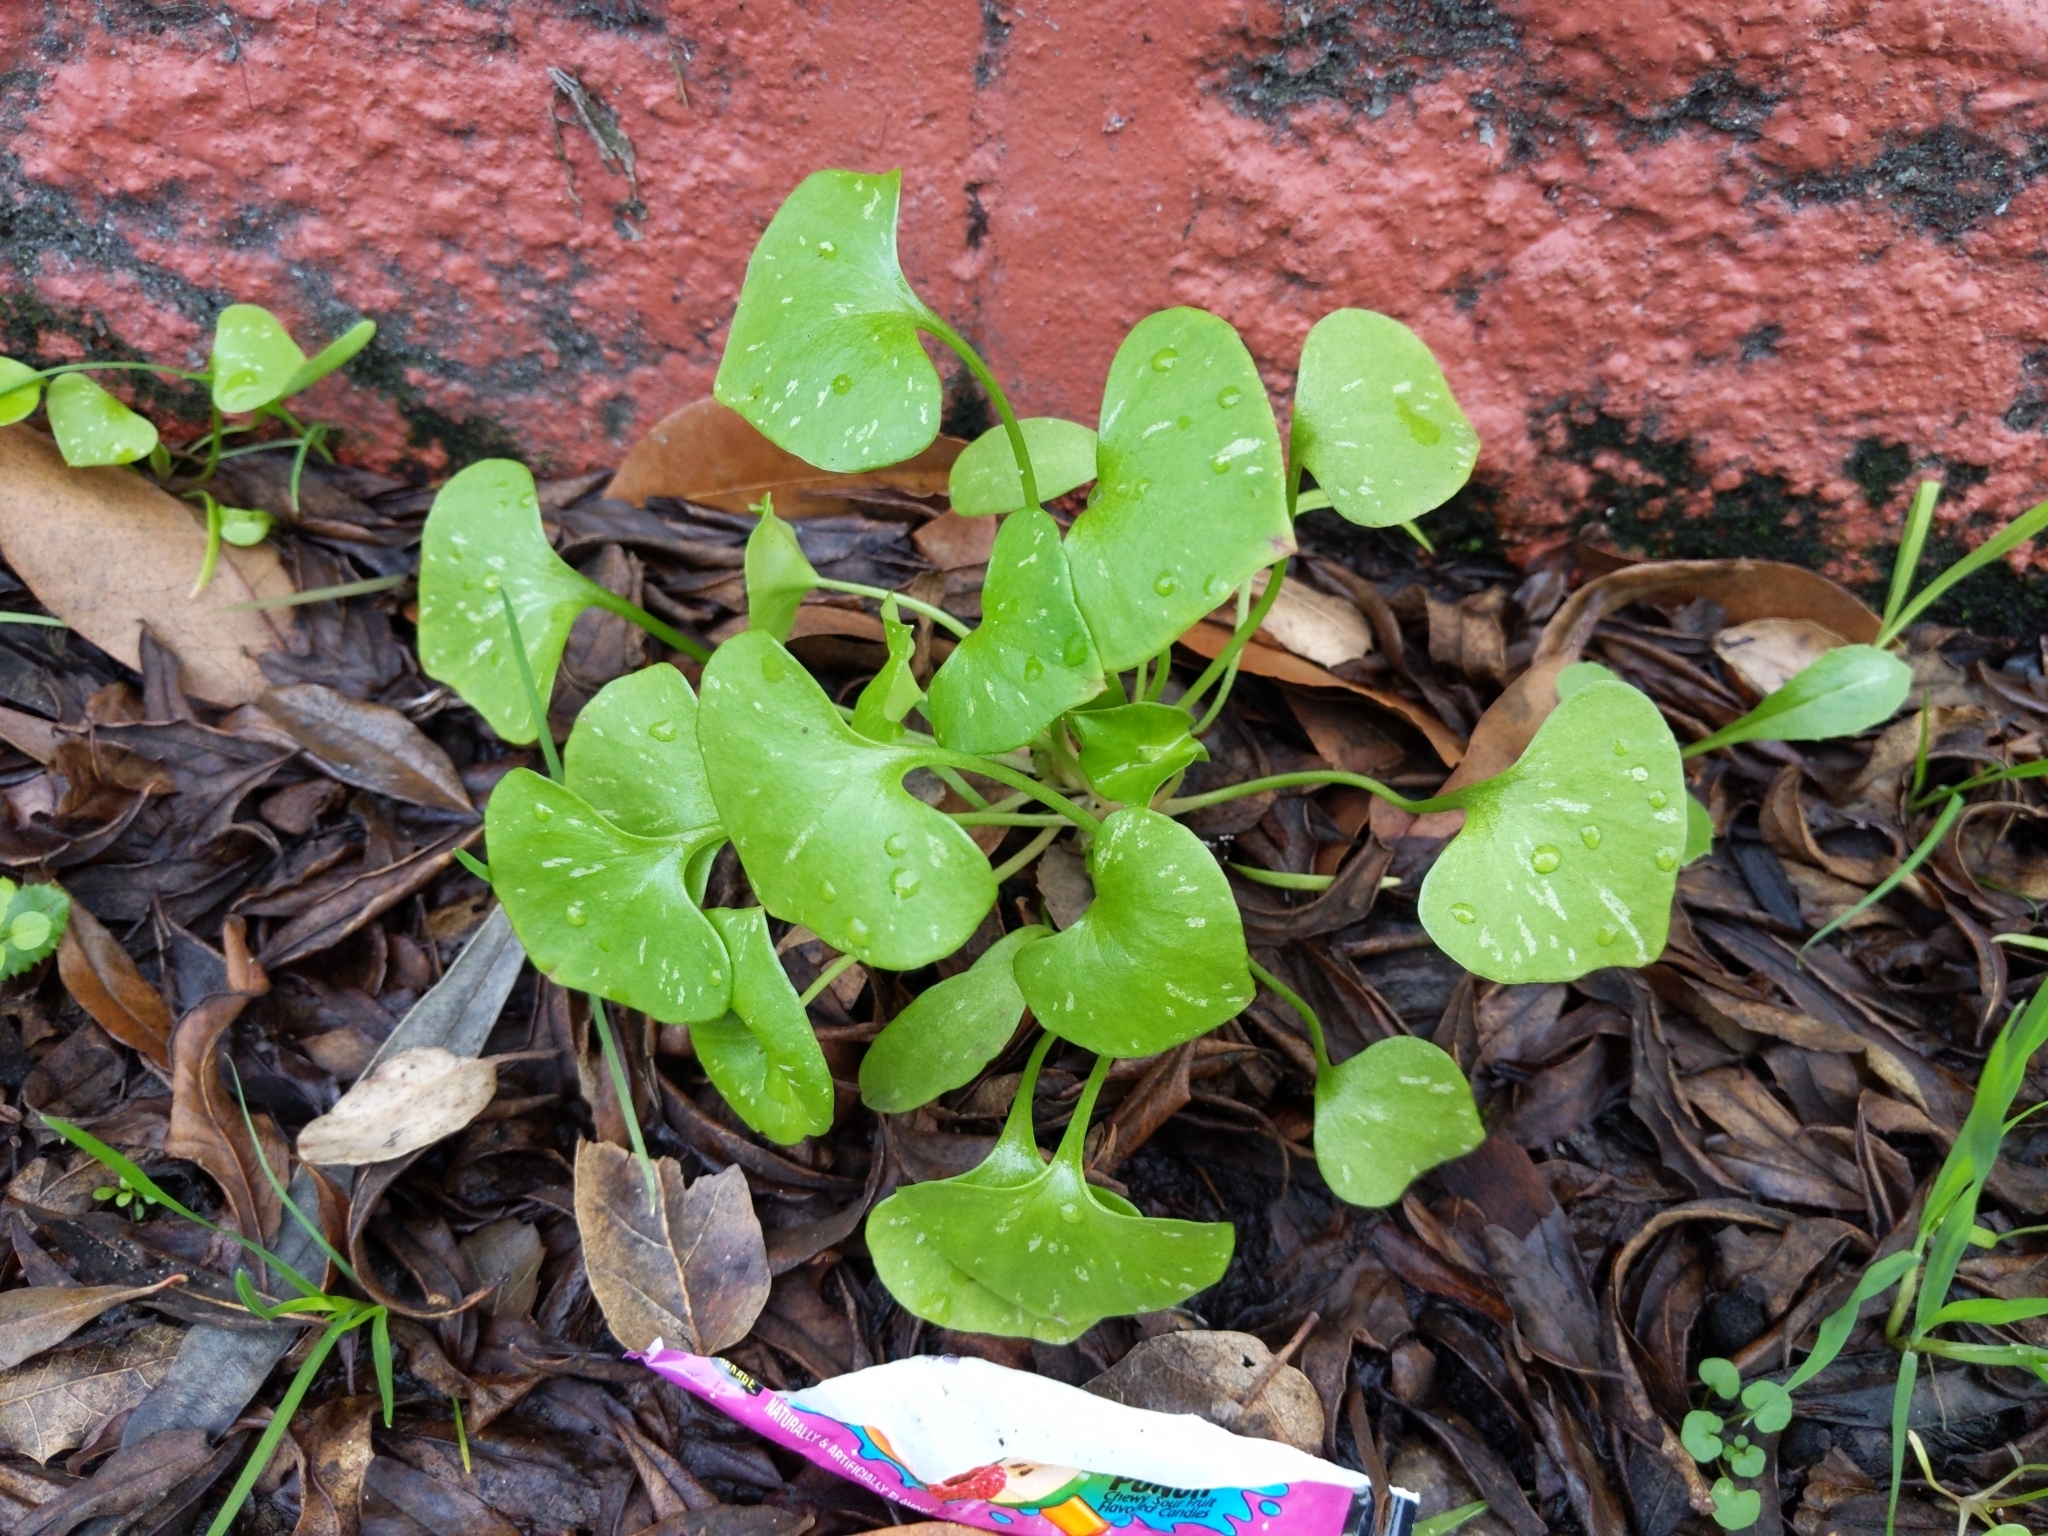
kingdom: Plantae
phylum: Tracheophyta
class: Magnoliopsida
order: Caryophyllales
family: Montiaceae
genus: Claytonia
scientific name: Claytonia perfoliata
